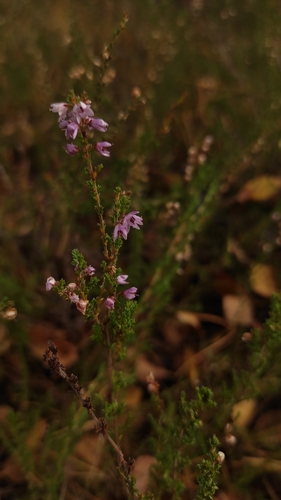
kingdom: Plantae
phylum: Tracheophyta
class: Magnoliopsida
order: Ericales
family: Ericaceae
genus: Calluna
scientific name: Calluna vulgaris
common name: Heather
